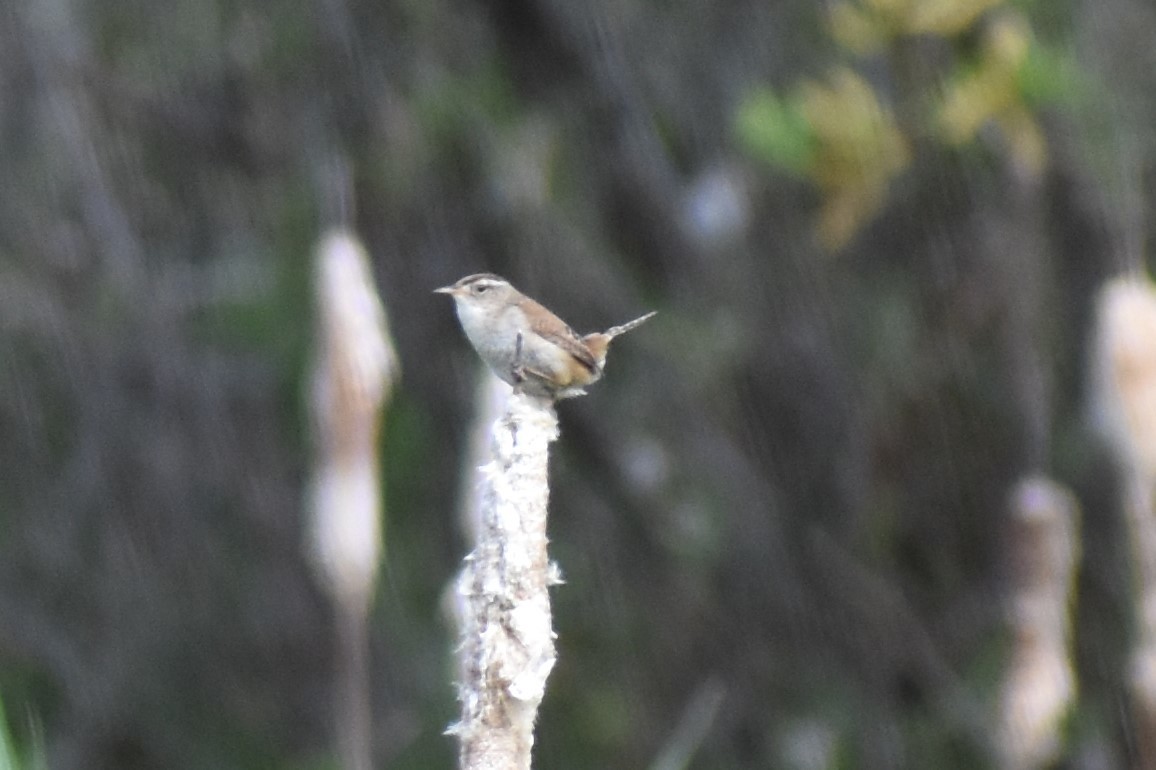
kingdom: Animalia
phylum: Chordata
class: Aves
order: Passeriformes
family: Troglodytidae
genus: Cistothorus
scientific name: Cistothorus palustris
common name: Marsh wren
